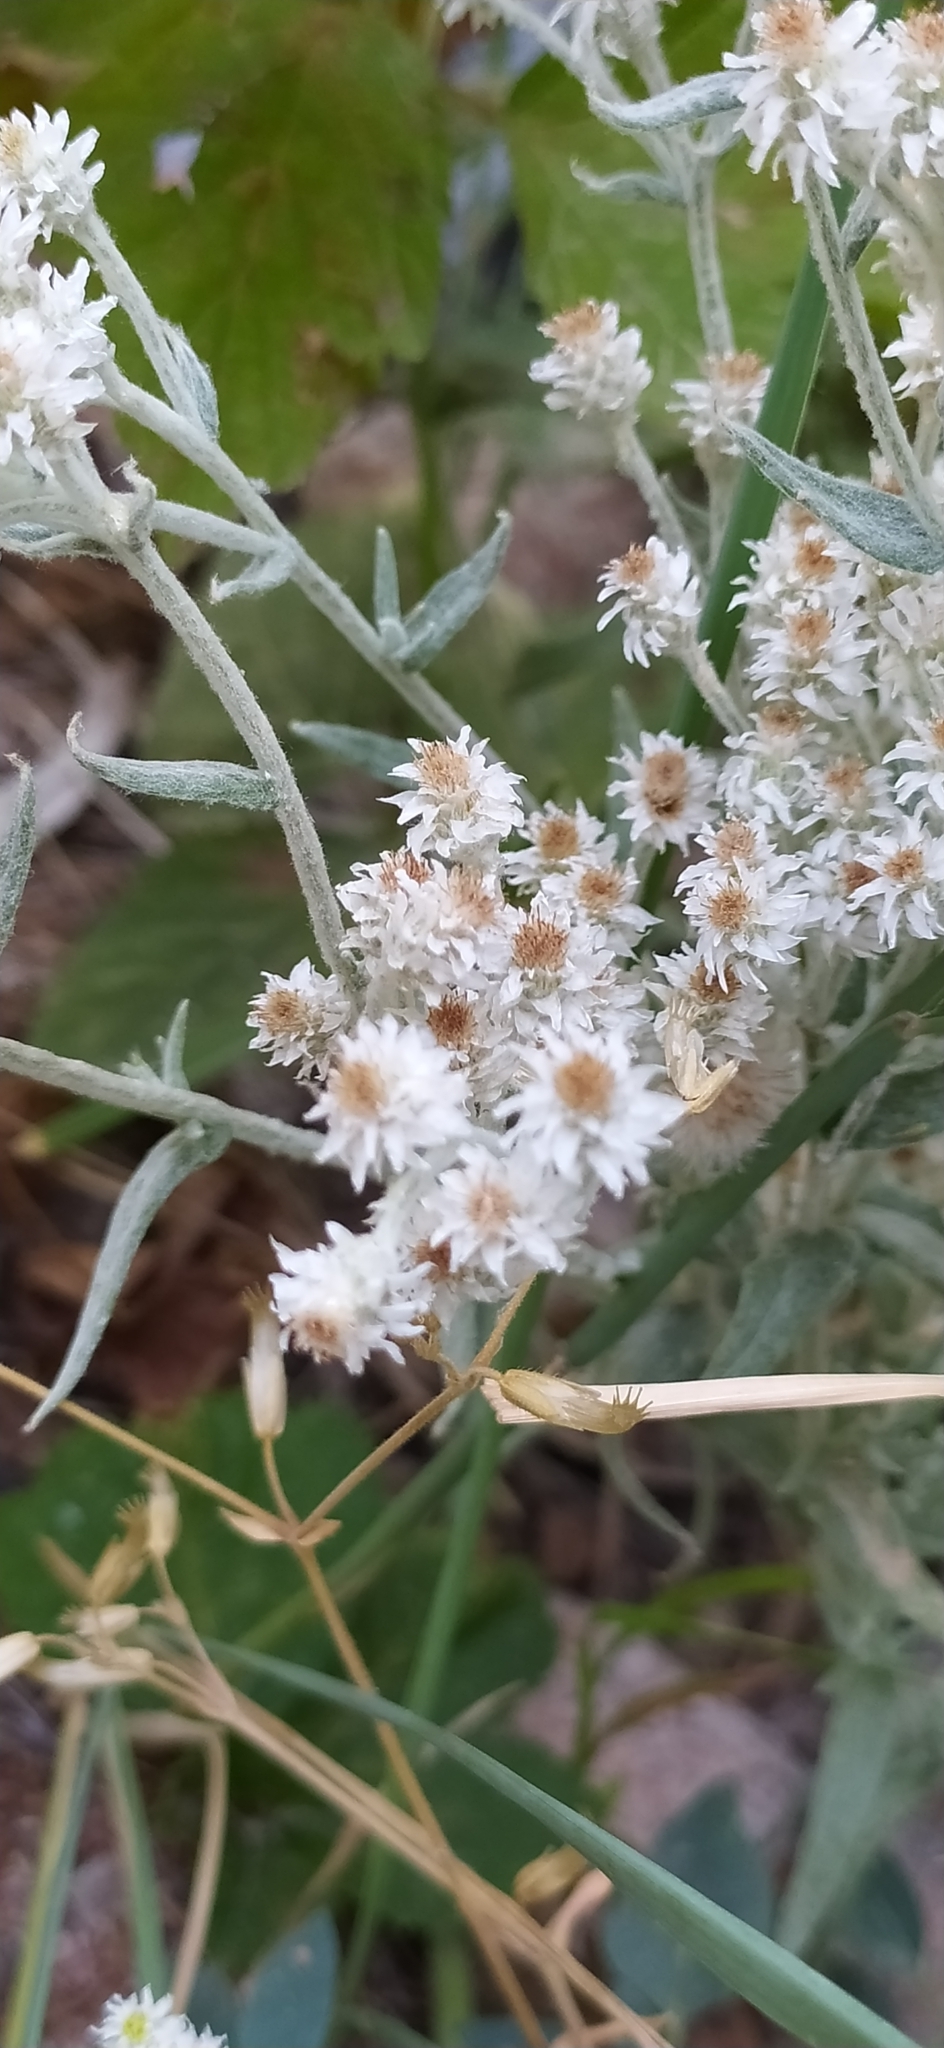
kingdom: Plantae
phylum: Tracheophyta
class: Magnoliopsida
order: Asterales
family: Asteraceae
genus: Anaphalis
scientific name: Anaphalis velutina
